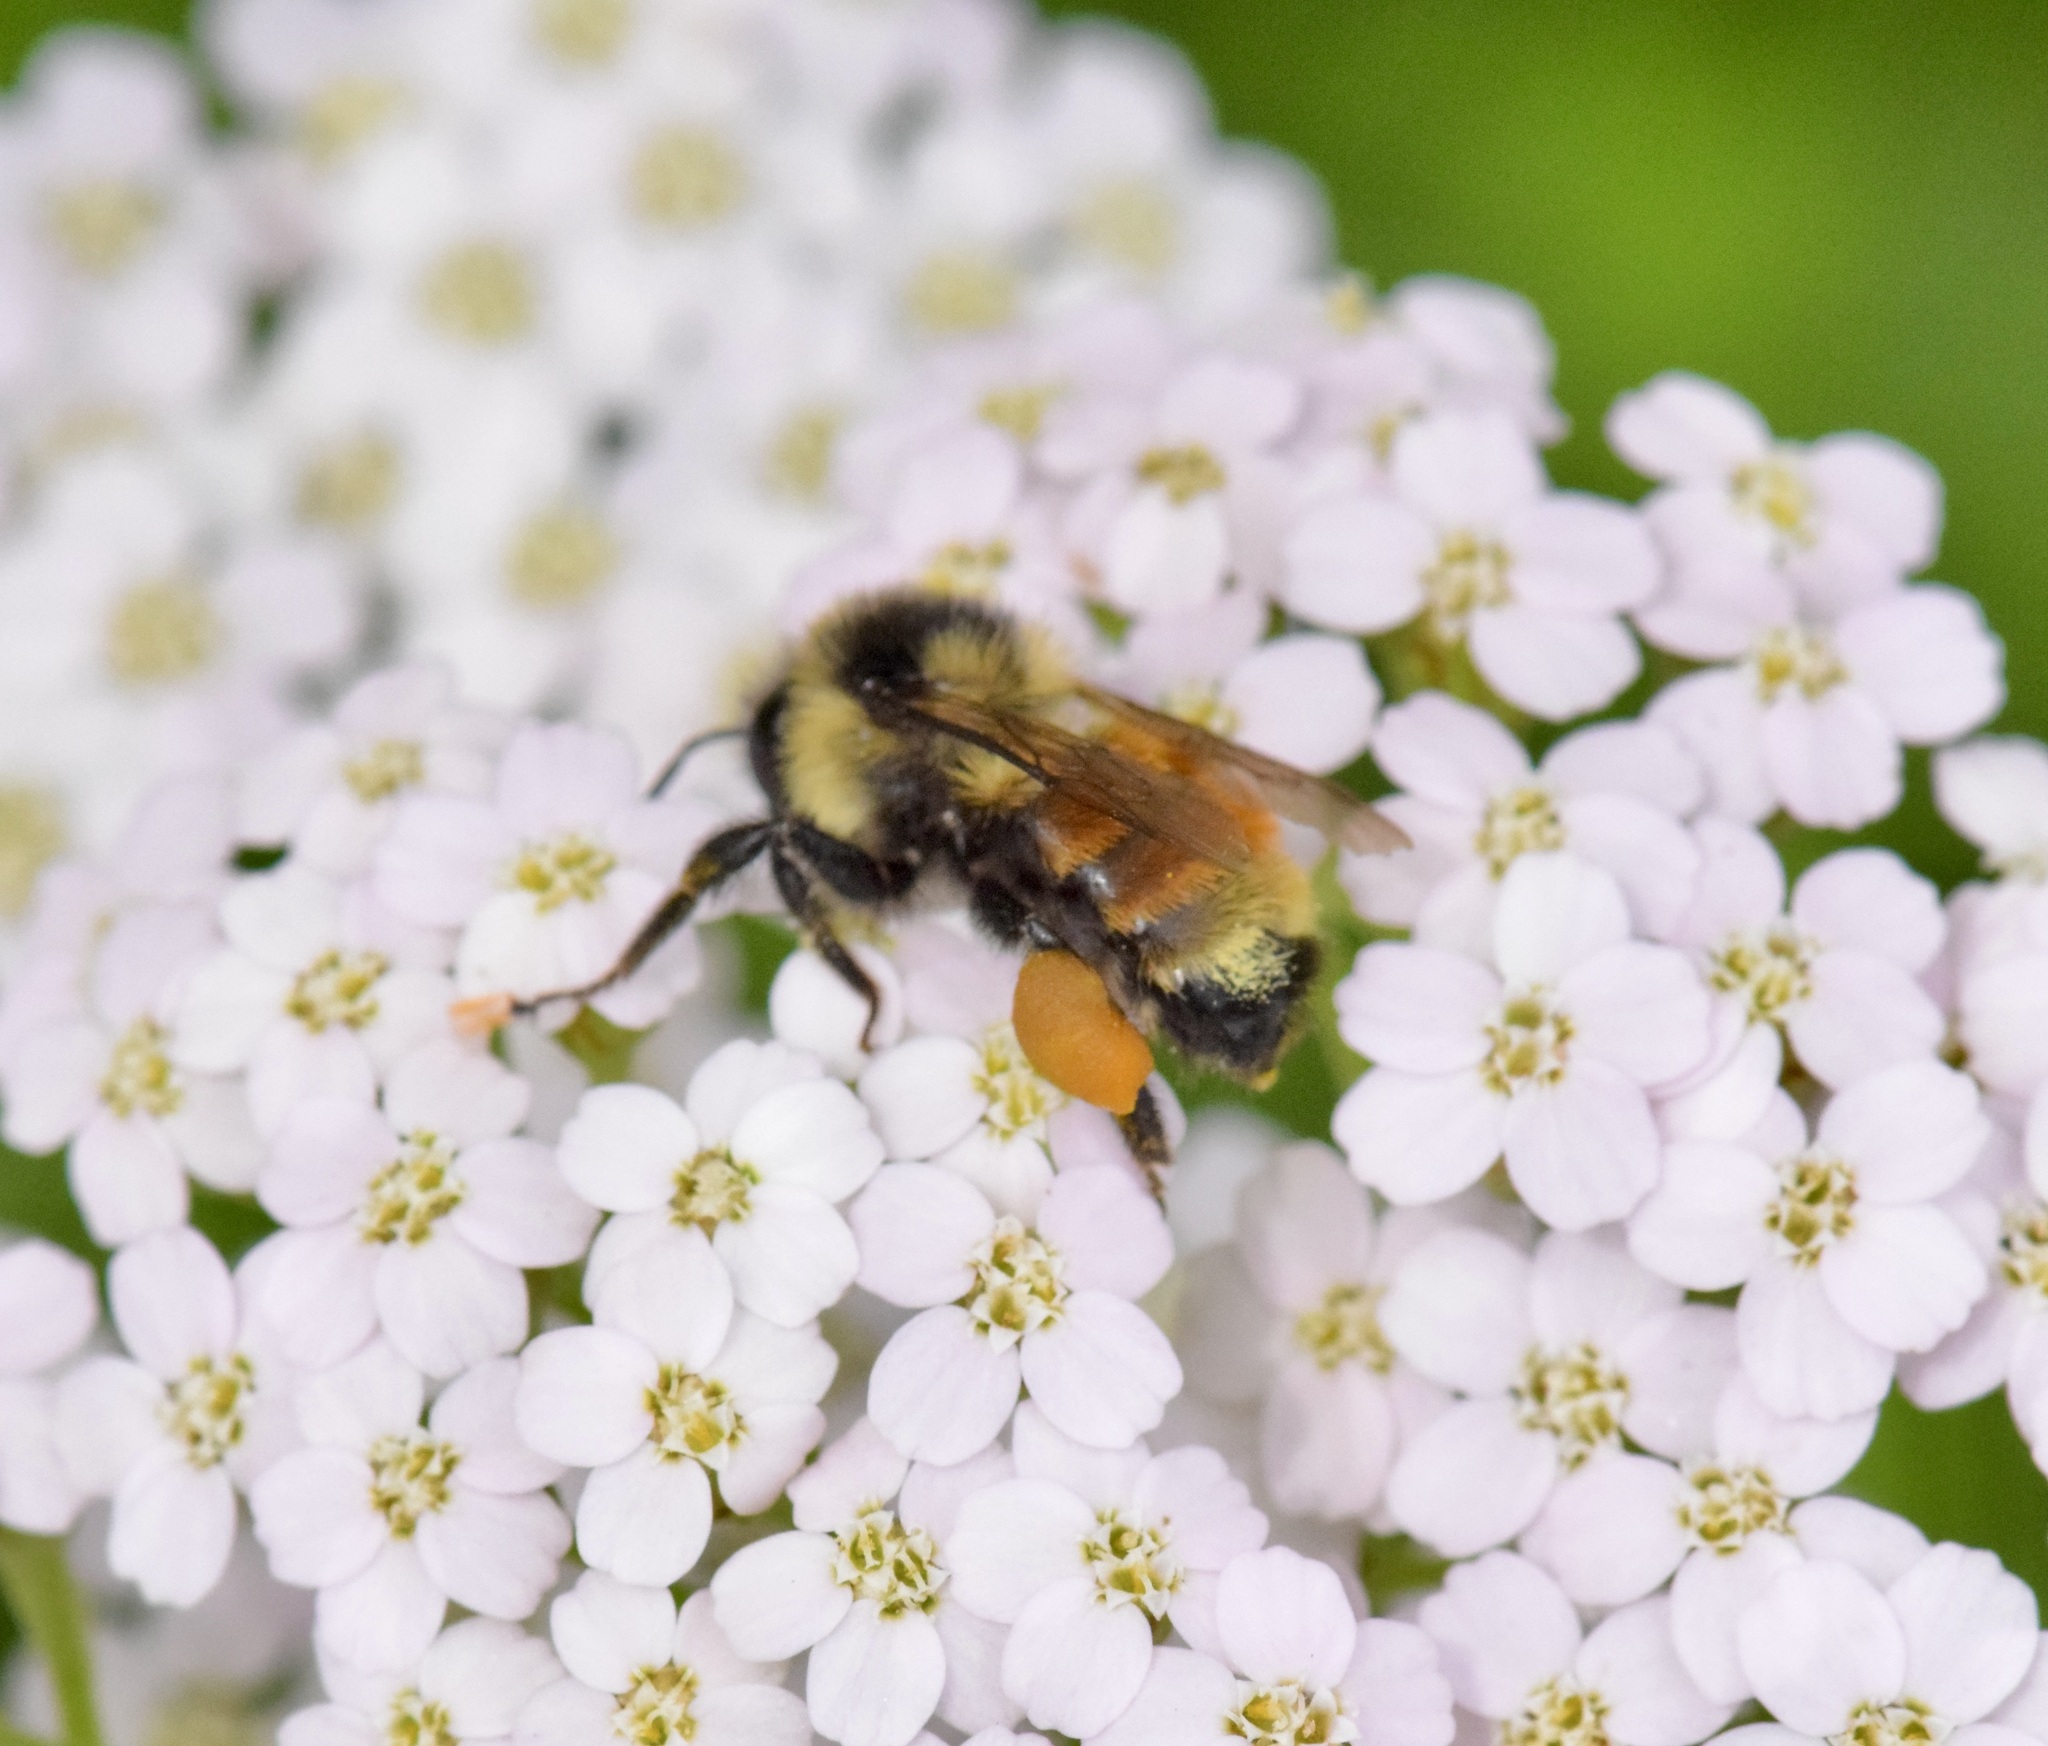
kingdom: Animalia
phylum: Arthropoda
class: Insecta
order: Hymenoptera
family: Apidae
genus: Bombus
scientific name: Bombus ternarius
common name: Tri-colored bumble bee
